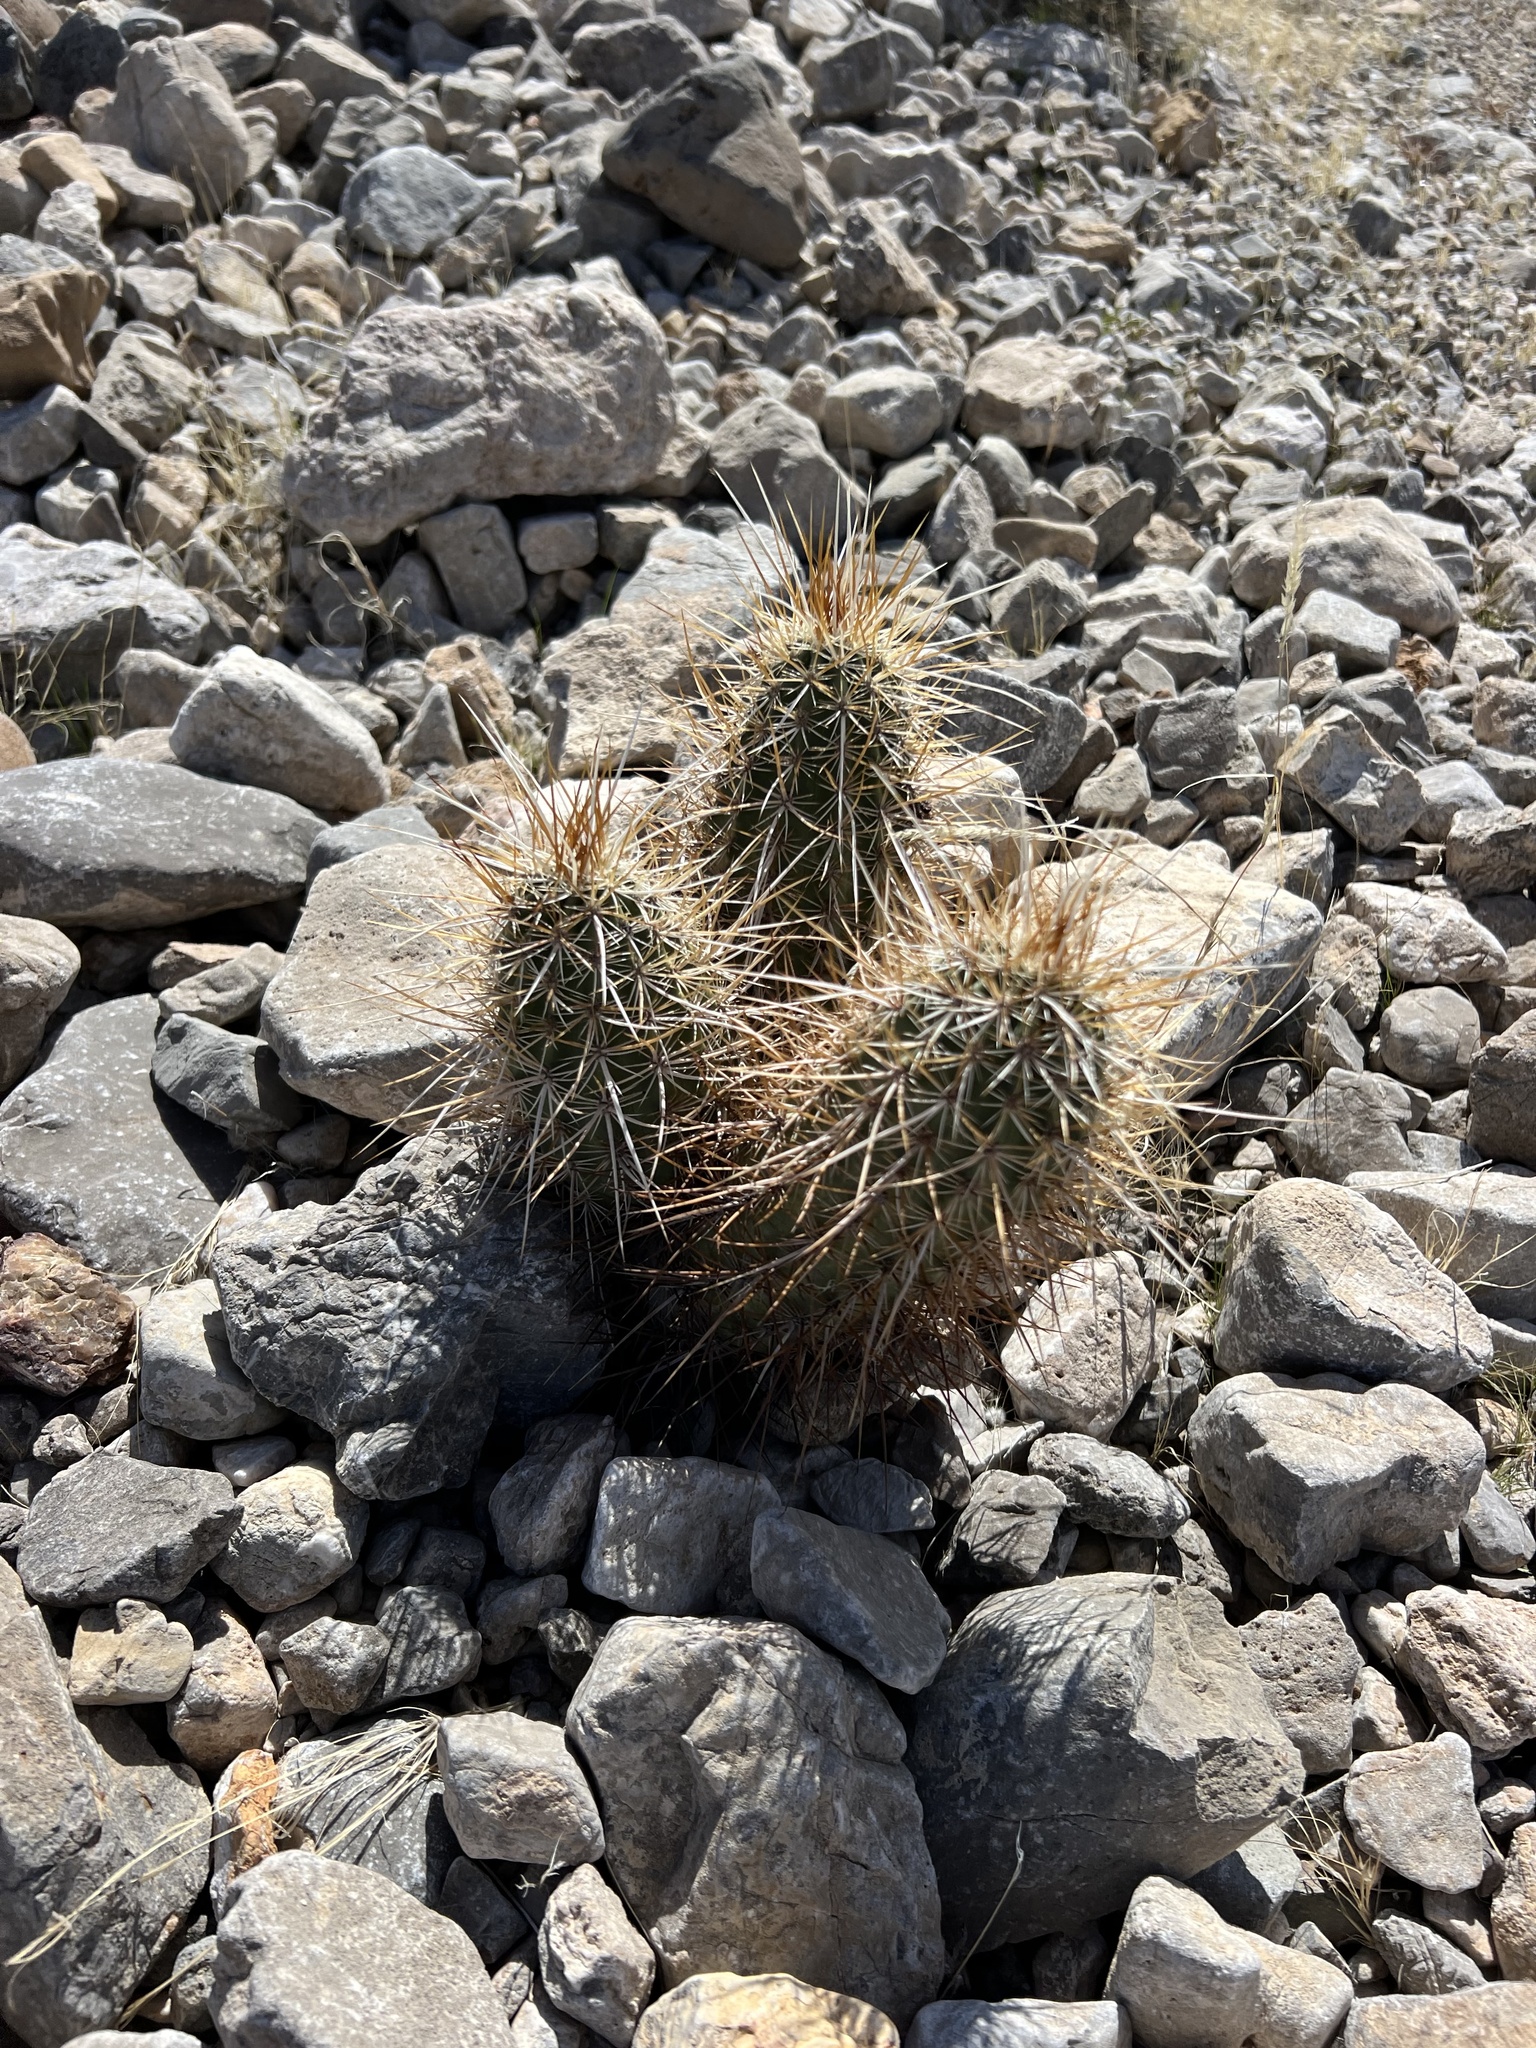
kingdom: Plantae
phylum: Tracheophyta
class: Magnoliopsida
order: Caryophyllales
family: Cactaceae
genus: Echinocereus
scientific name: Echinocereus engelmannii
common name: Engelmann's hedgehog cactus
